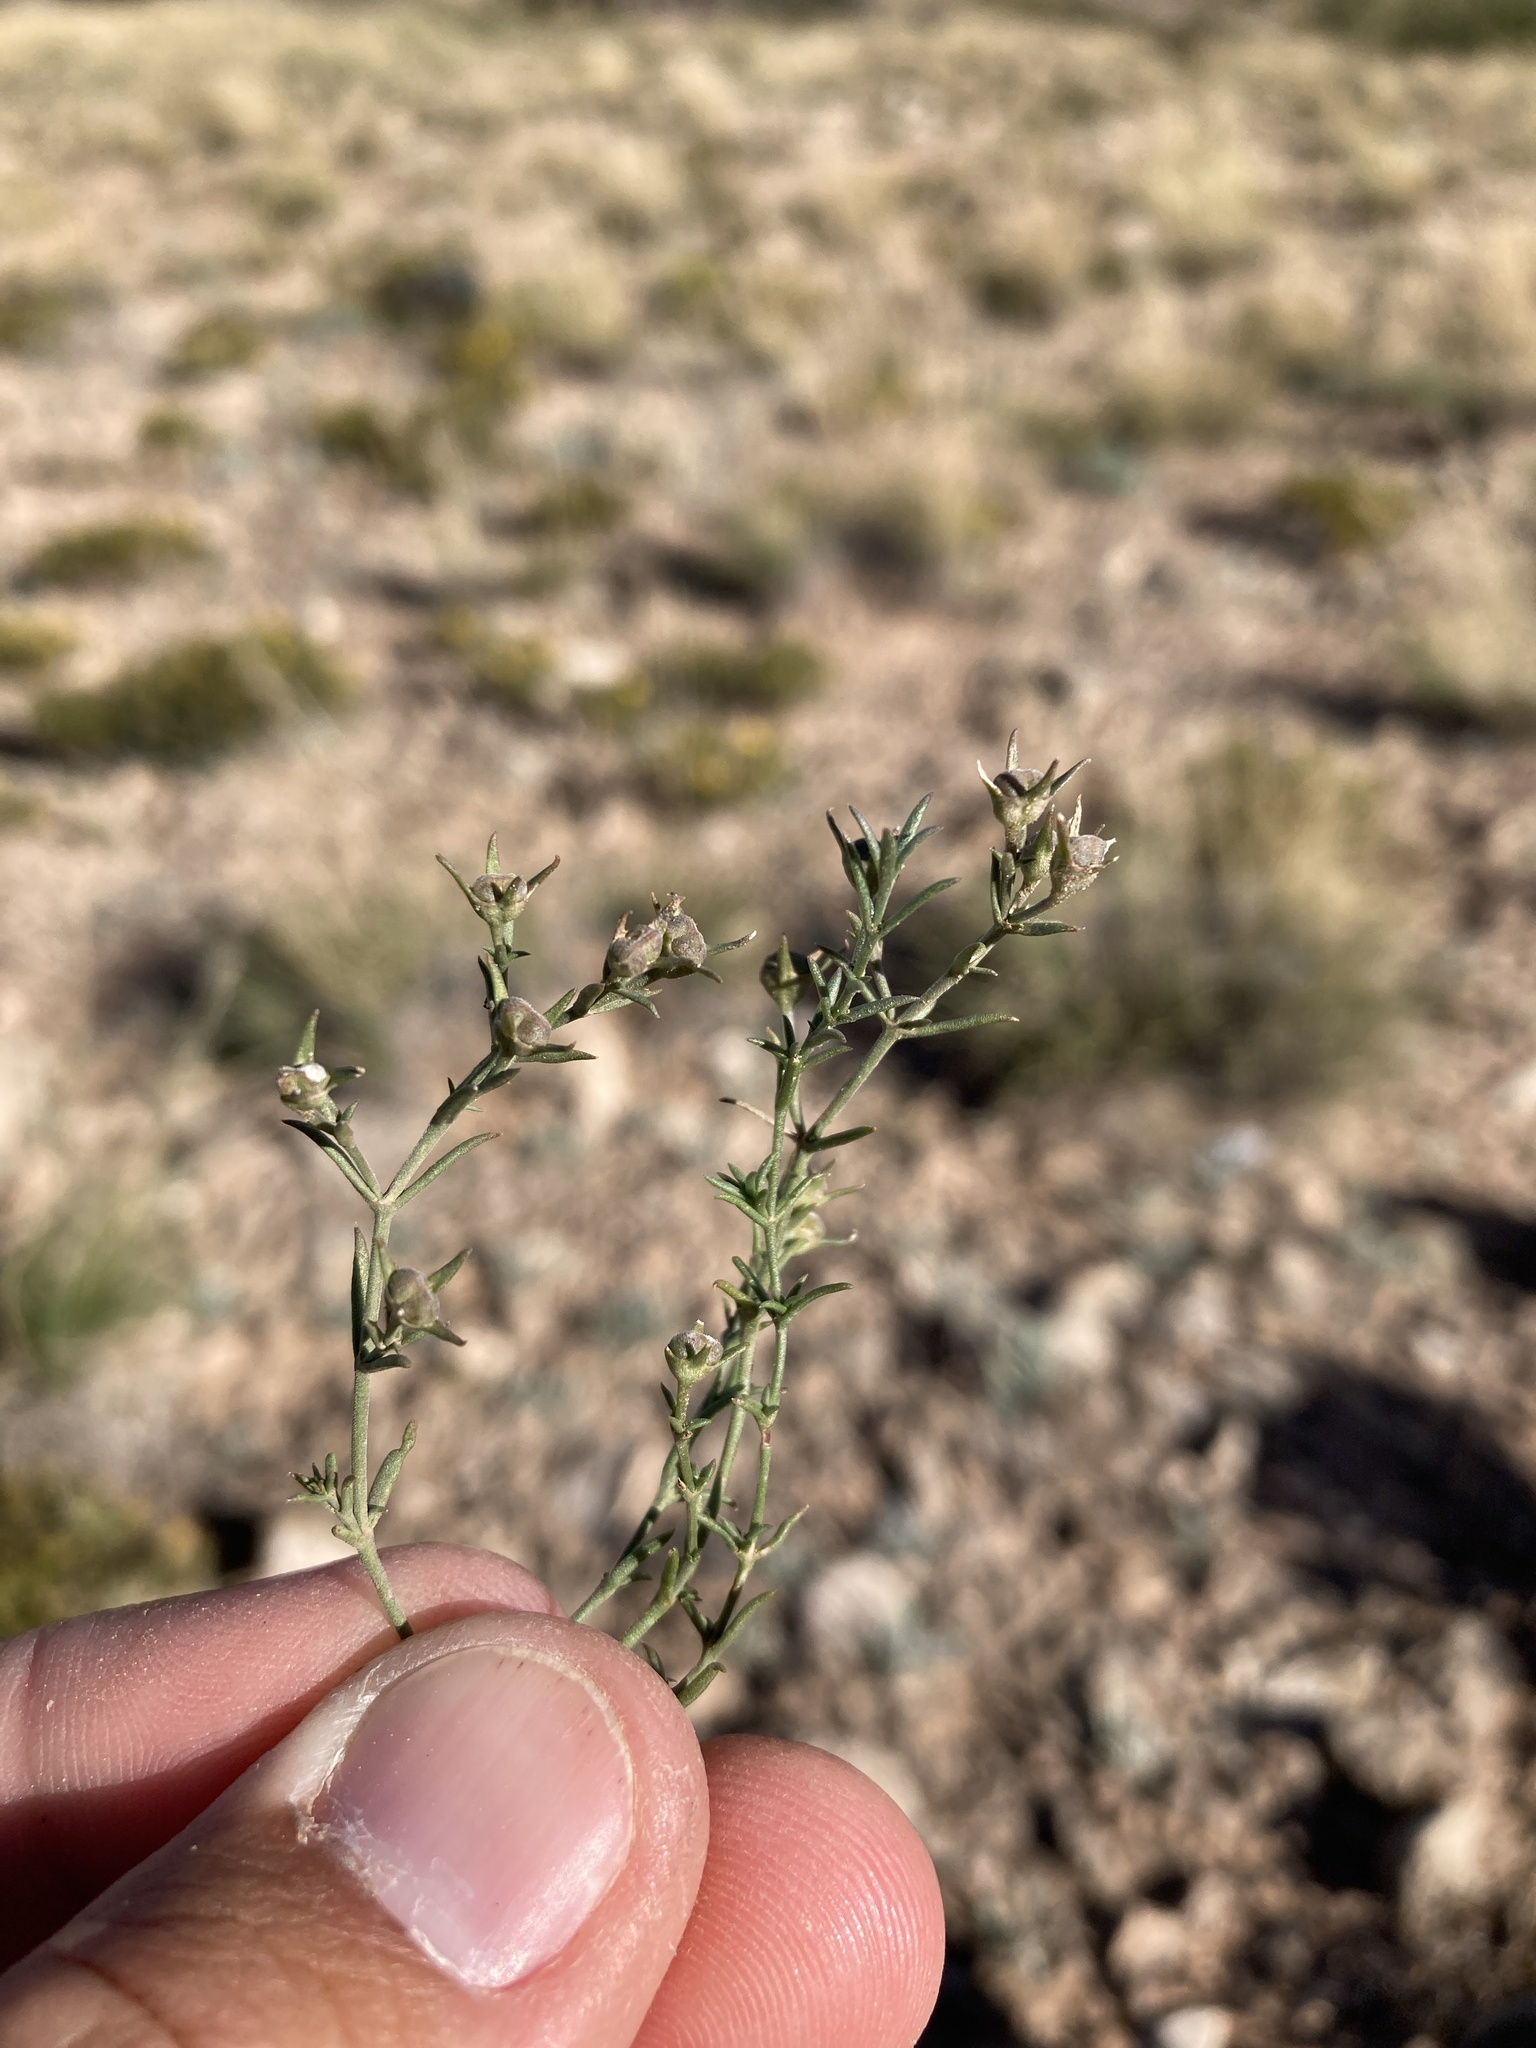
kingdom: Plantae
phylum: Tracheophyta
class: Magnoliopsida
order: Gentianales
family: Rubiaceae
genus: Houstonia
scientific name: Houstonia acerosa
